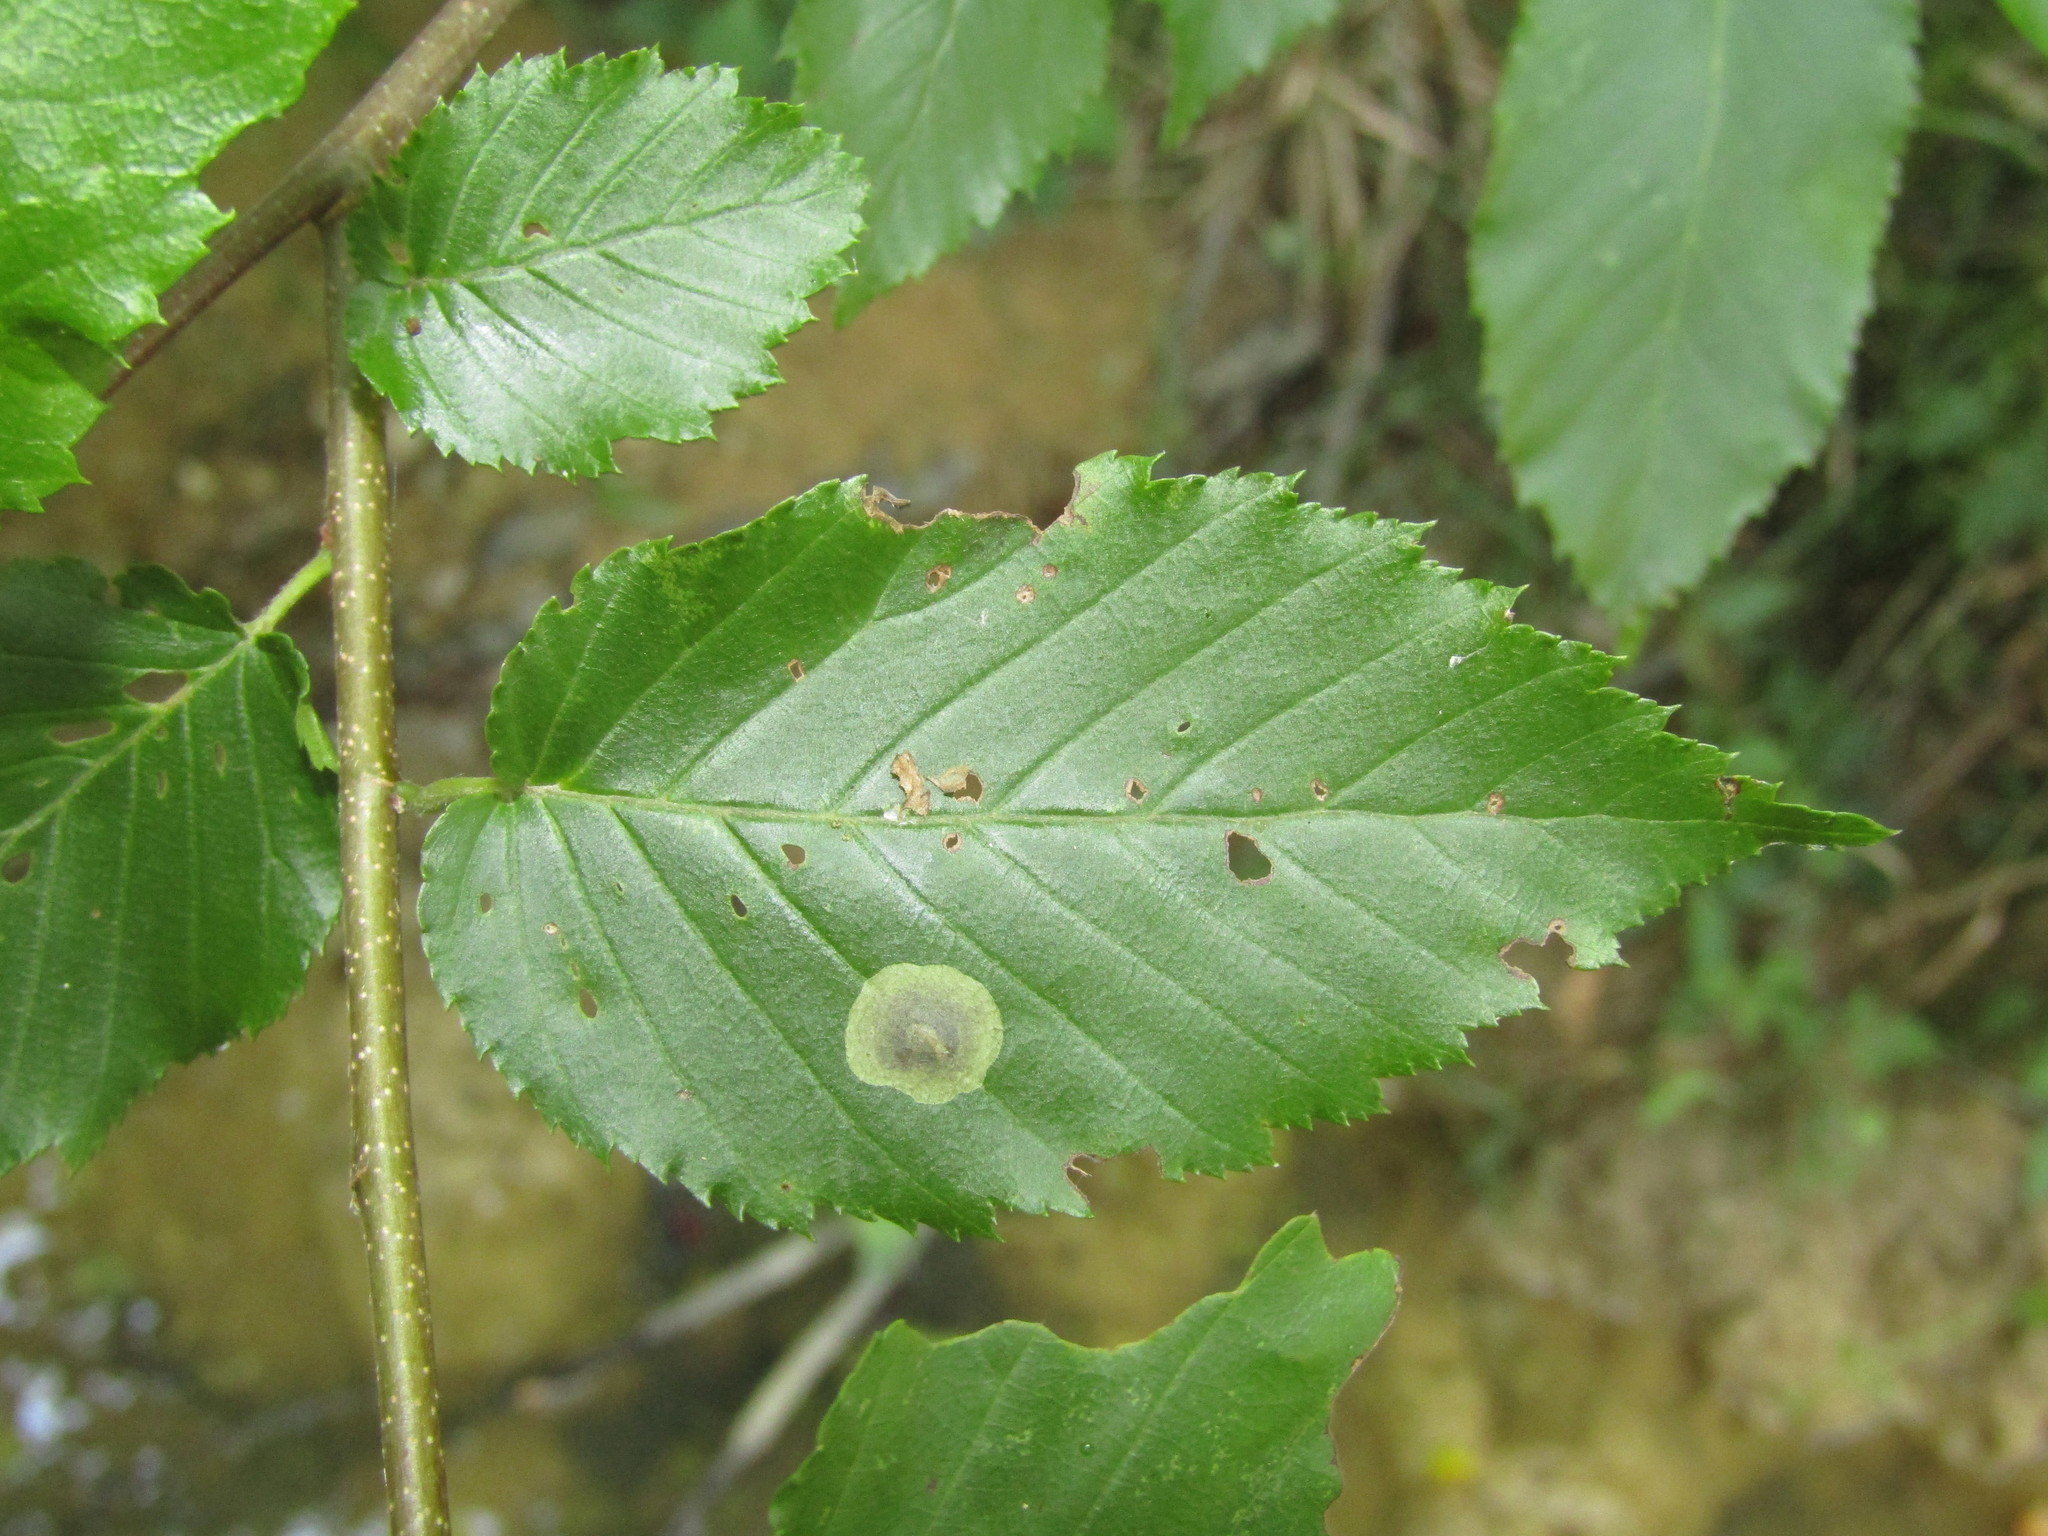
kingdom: Animalia
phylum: Arthropoda
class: Insecta
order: Lepidoptera
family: Gracillariidae
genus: Cameraria
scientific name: Cameraria betulivora
